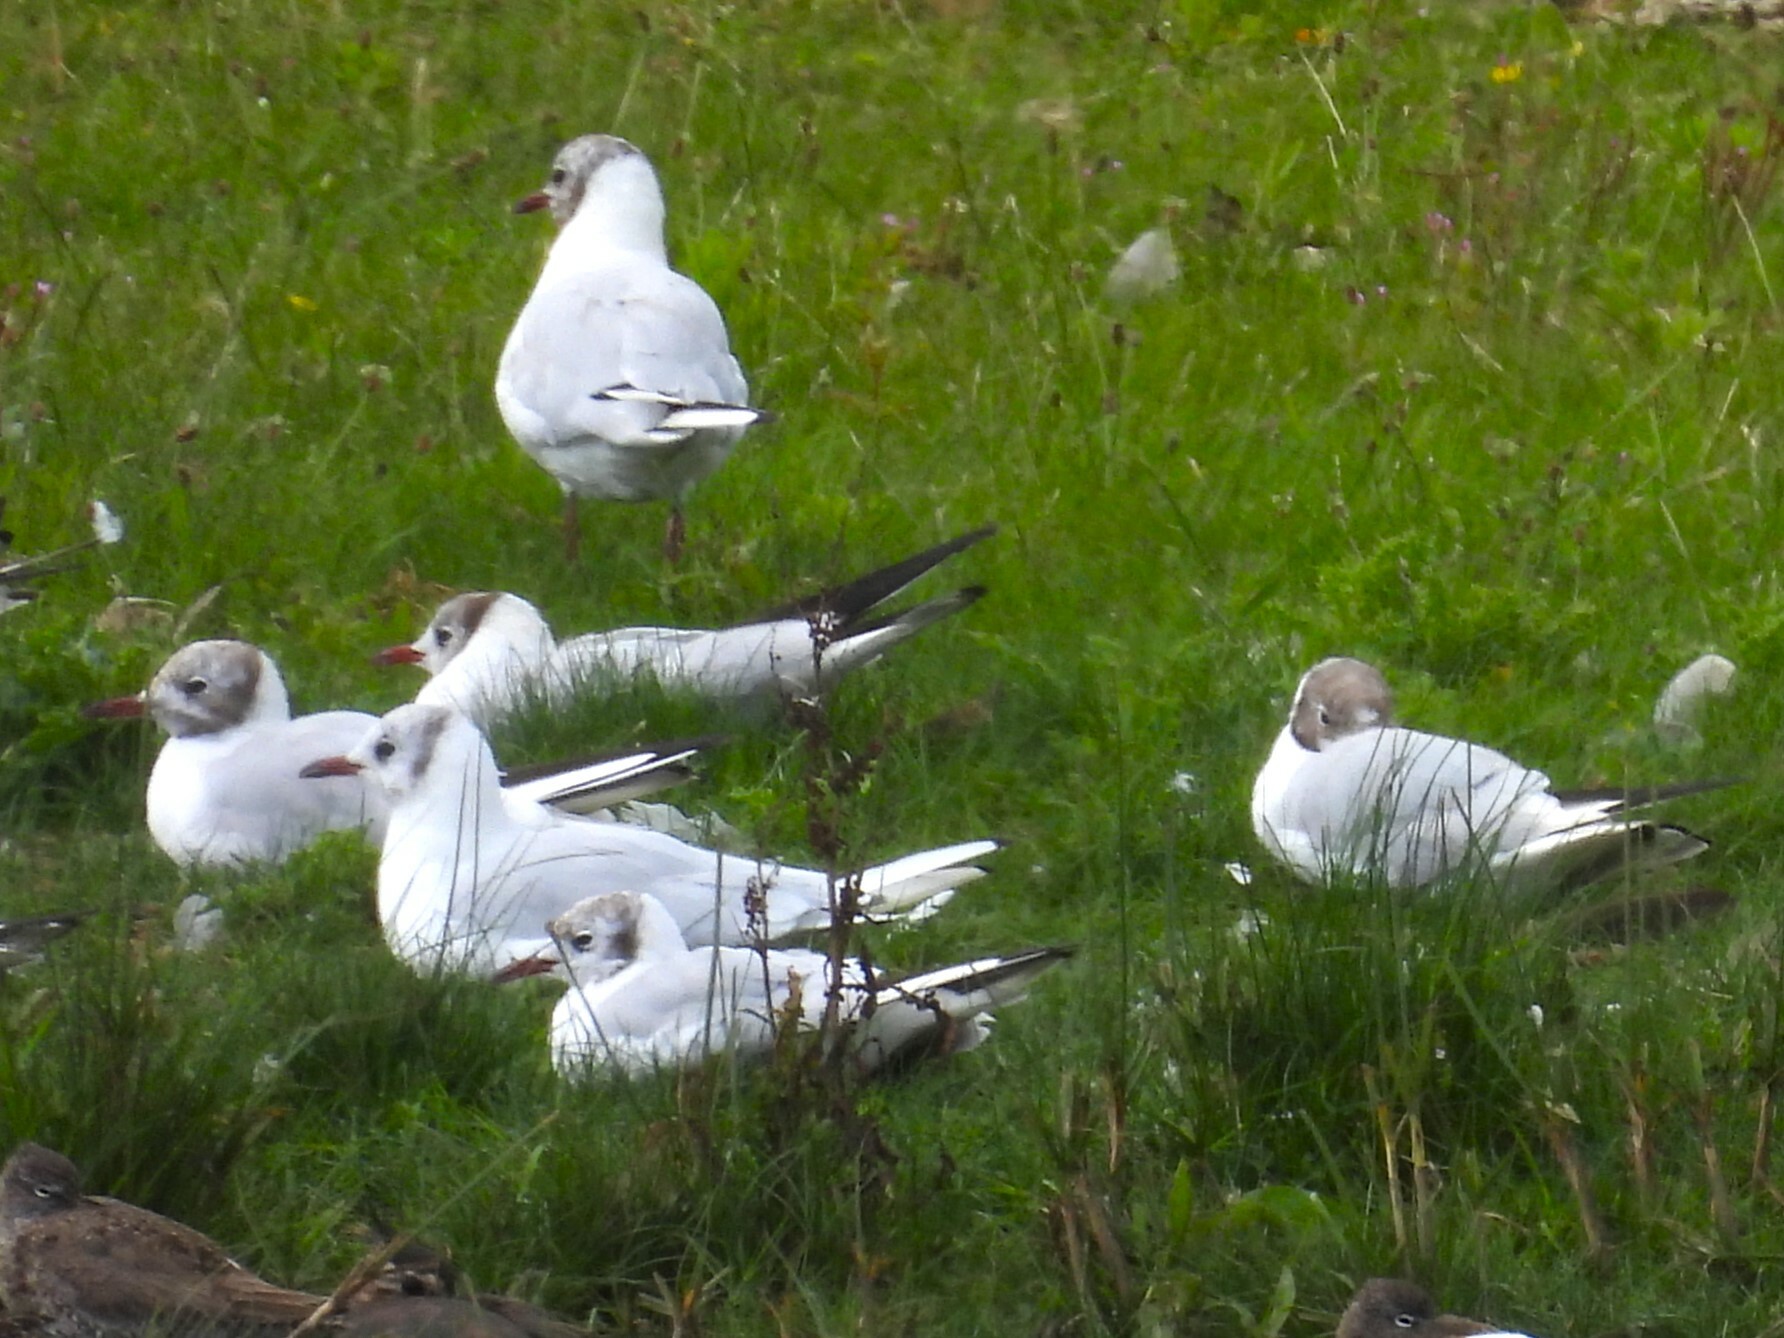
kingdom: Animalia
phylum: Chordata
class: Aves
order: Charadriiformes
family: Laridae
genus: Chroicocephalus
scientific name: Chroicocephalus ridibundus
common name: Black-headed gull
